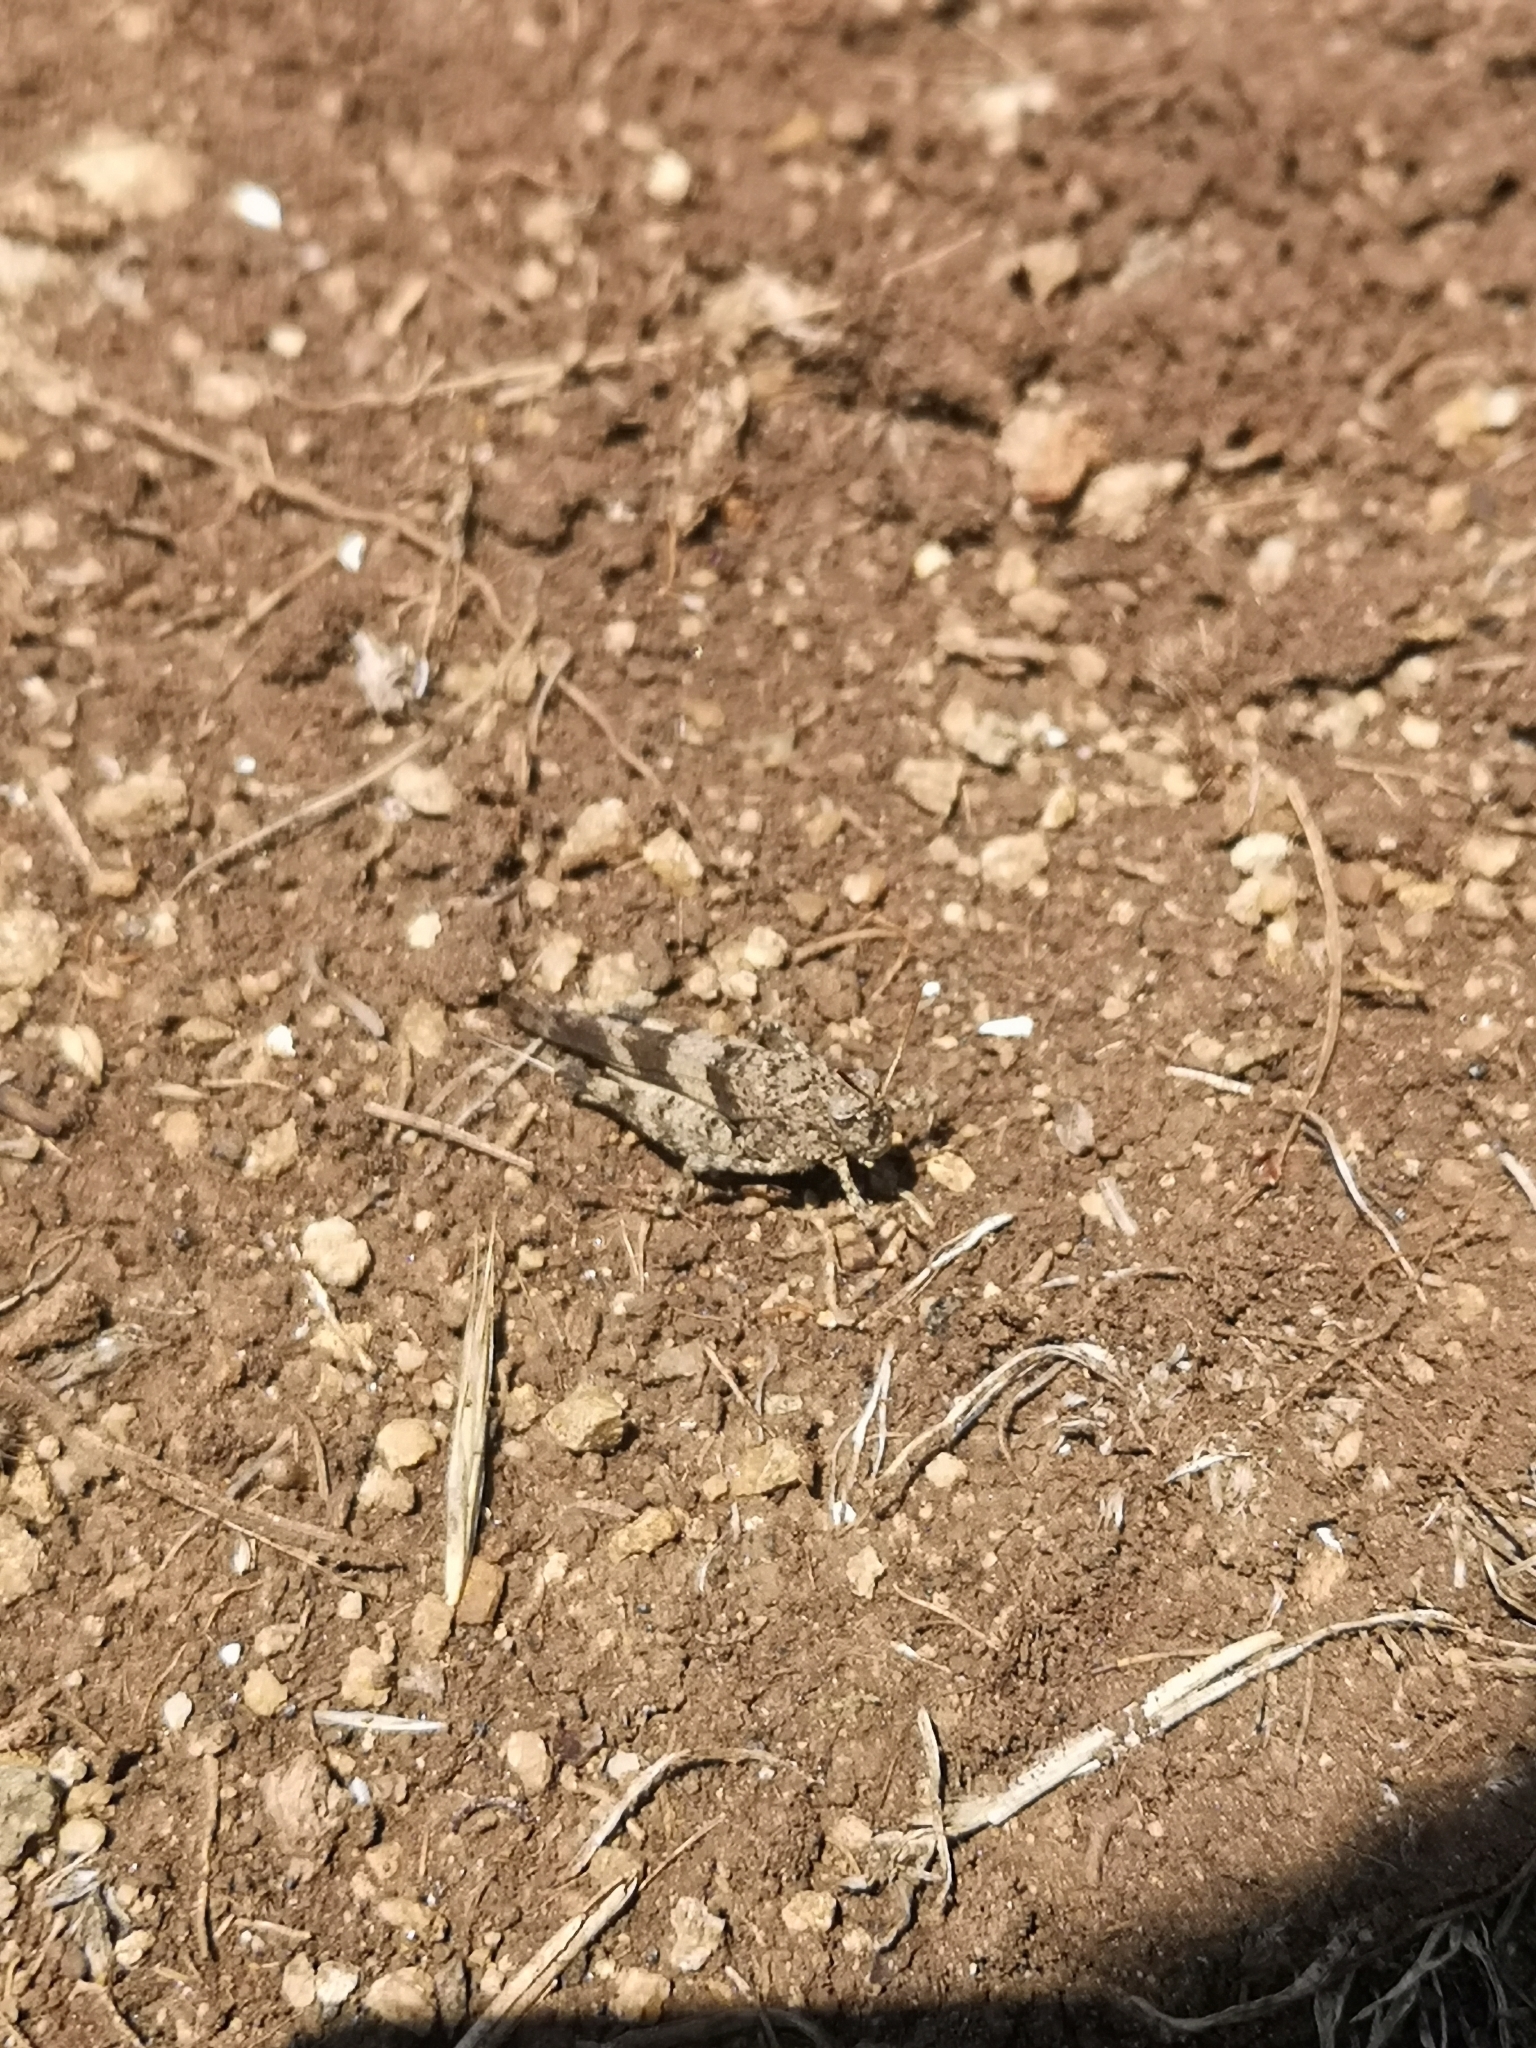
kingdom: Animalia
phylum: Arthropoda
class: Insecta
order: Orthoptera
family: Acrididae
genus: Oedipoda
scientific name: Oedipoda caerulescens
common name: Blue-winged grasshopper
